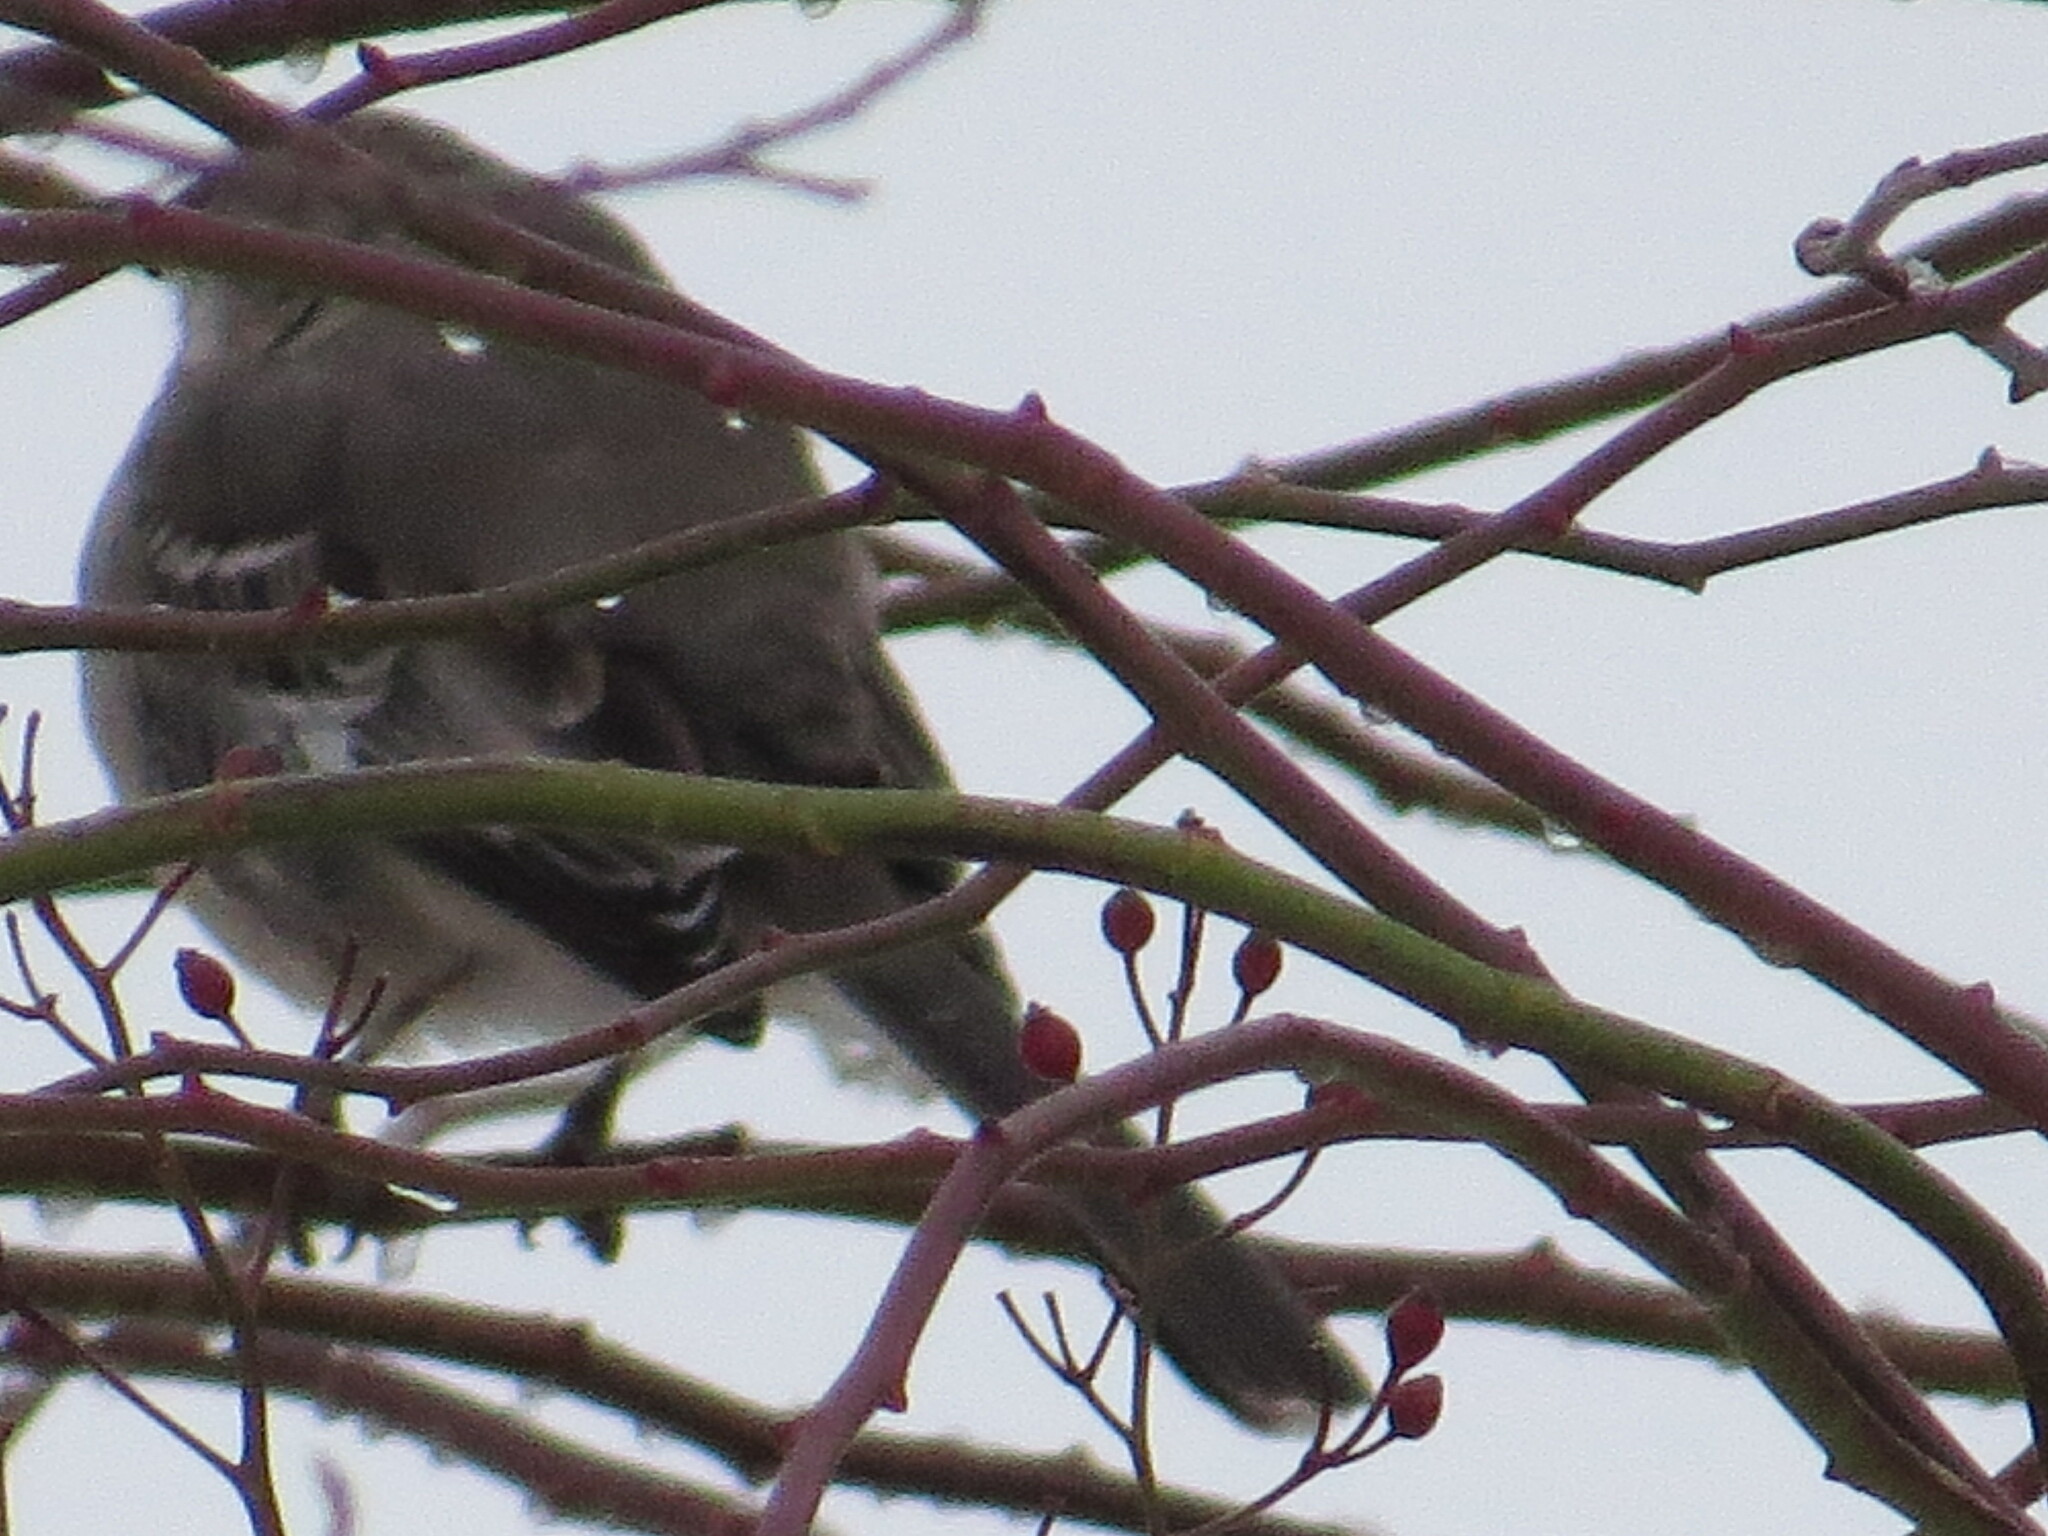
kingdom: Animalia
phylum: Chordata
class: Aves
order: Passeriformes
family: Mimidae
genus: Mimus
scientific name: Mimus polyglottos
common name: Northern mockingbird
